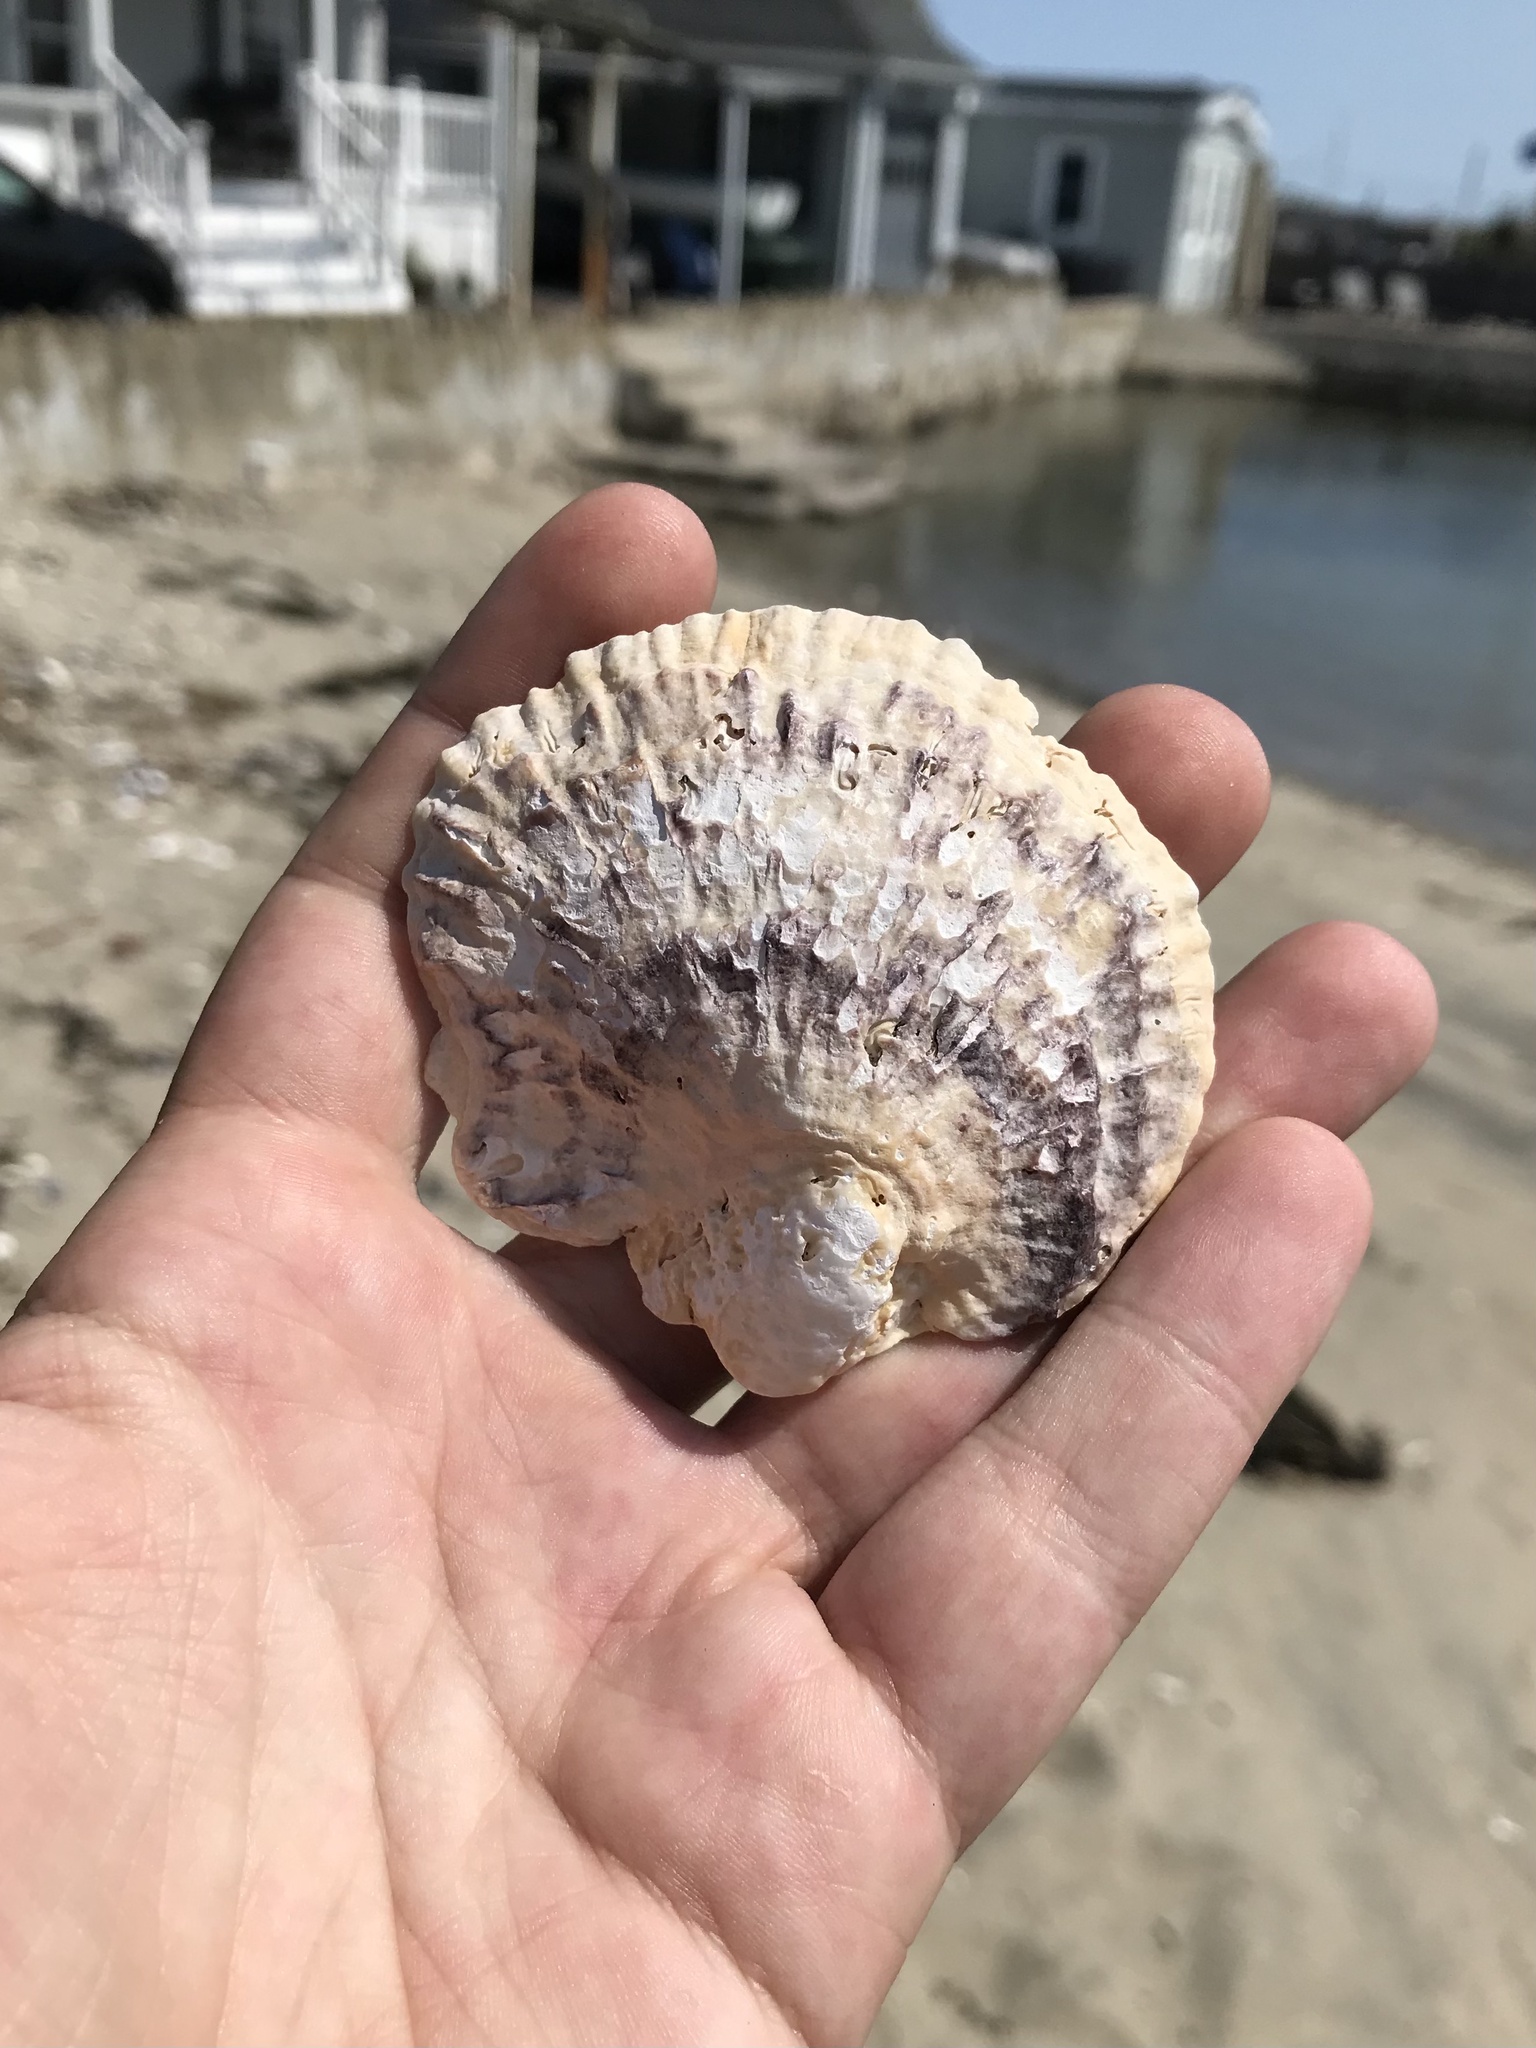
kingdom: Animalia
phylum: Mollusca
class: Bivalvia
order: Ostreida
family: Ostreidae
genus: Ostrea
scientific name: Ostrea edulis
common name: Flat oyster
